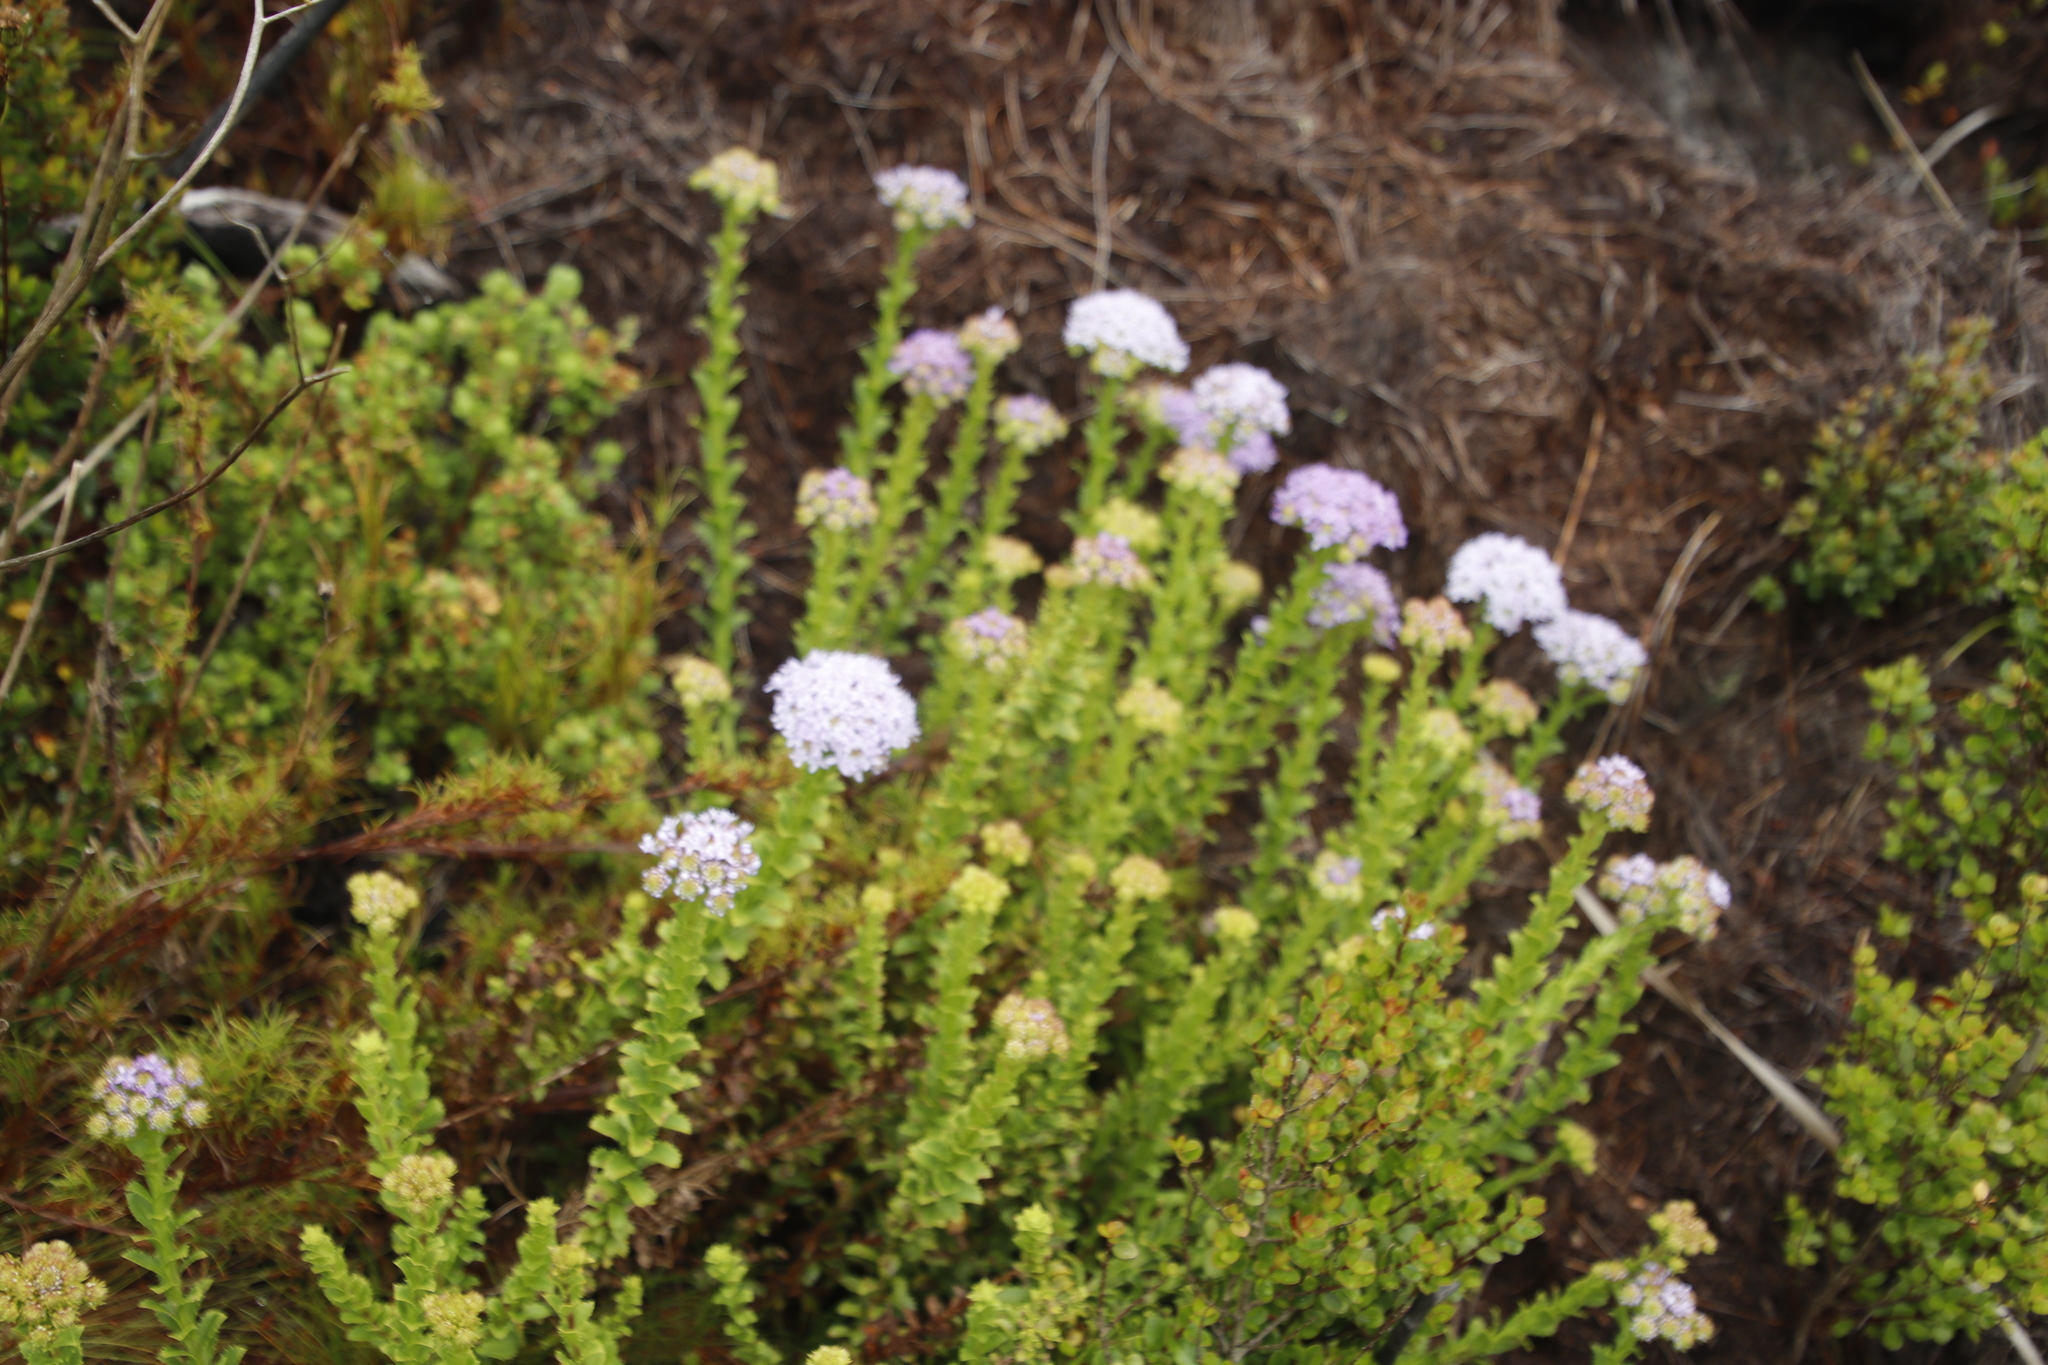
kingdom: Plantae
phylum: Tracheophyta
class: Magnoliopsida
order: Lamiales
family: Scrophulariaceae
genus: Pseudoselago
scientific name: Pseudoselago serrata
